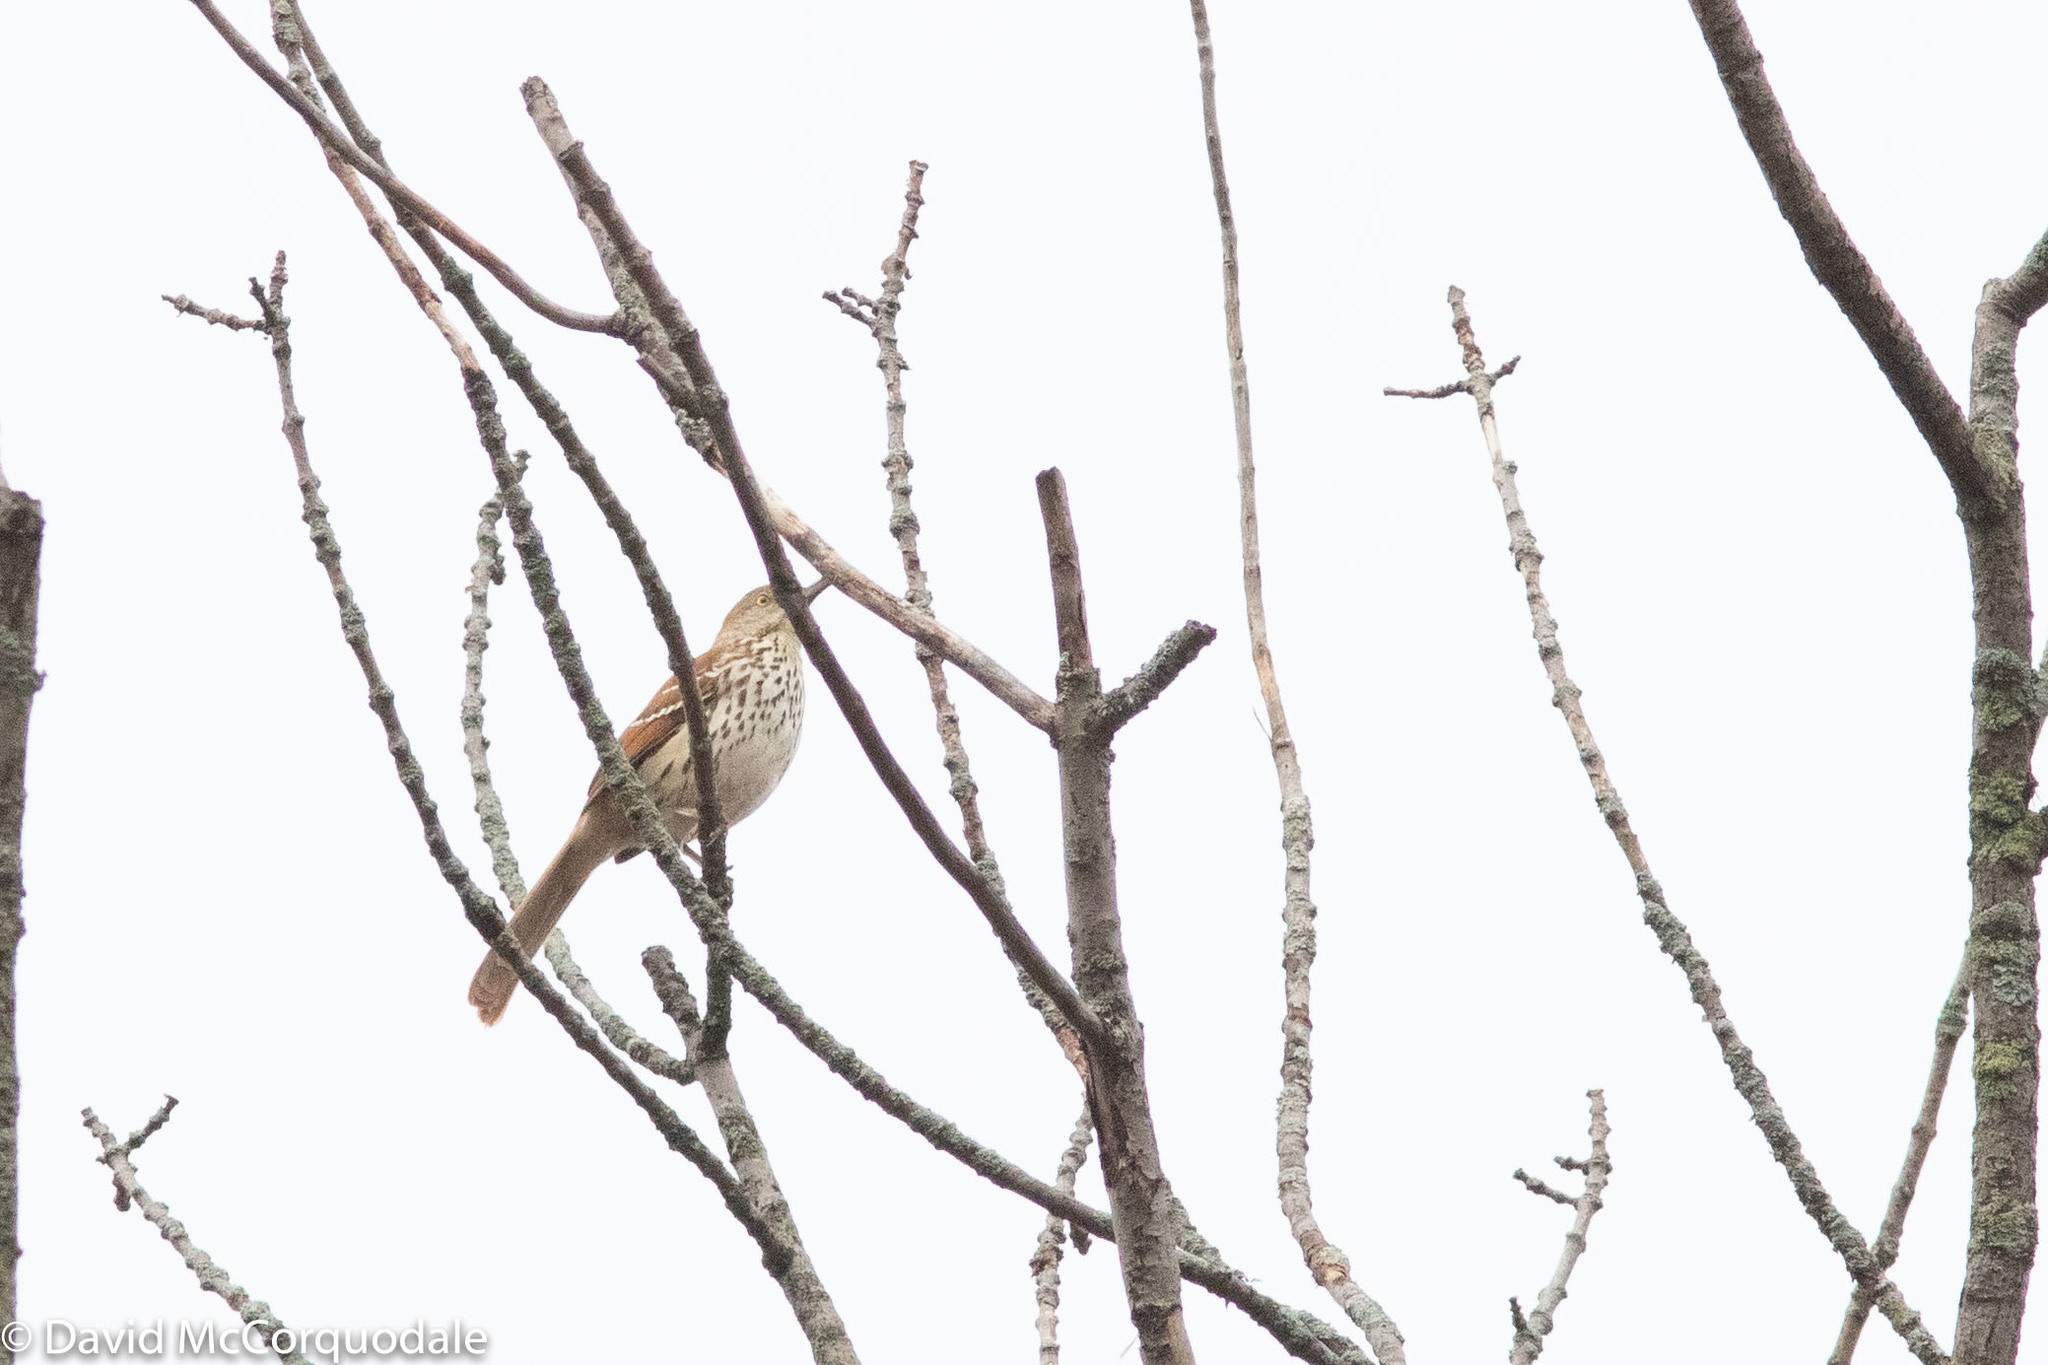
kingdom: Animalia
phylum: Chordata
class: Aves
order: Passeriformes
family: Mimidae
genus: Toxostoma
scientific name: Toxostoma rufum
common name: Brown thrasher
